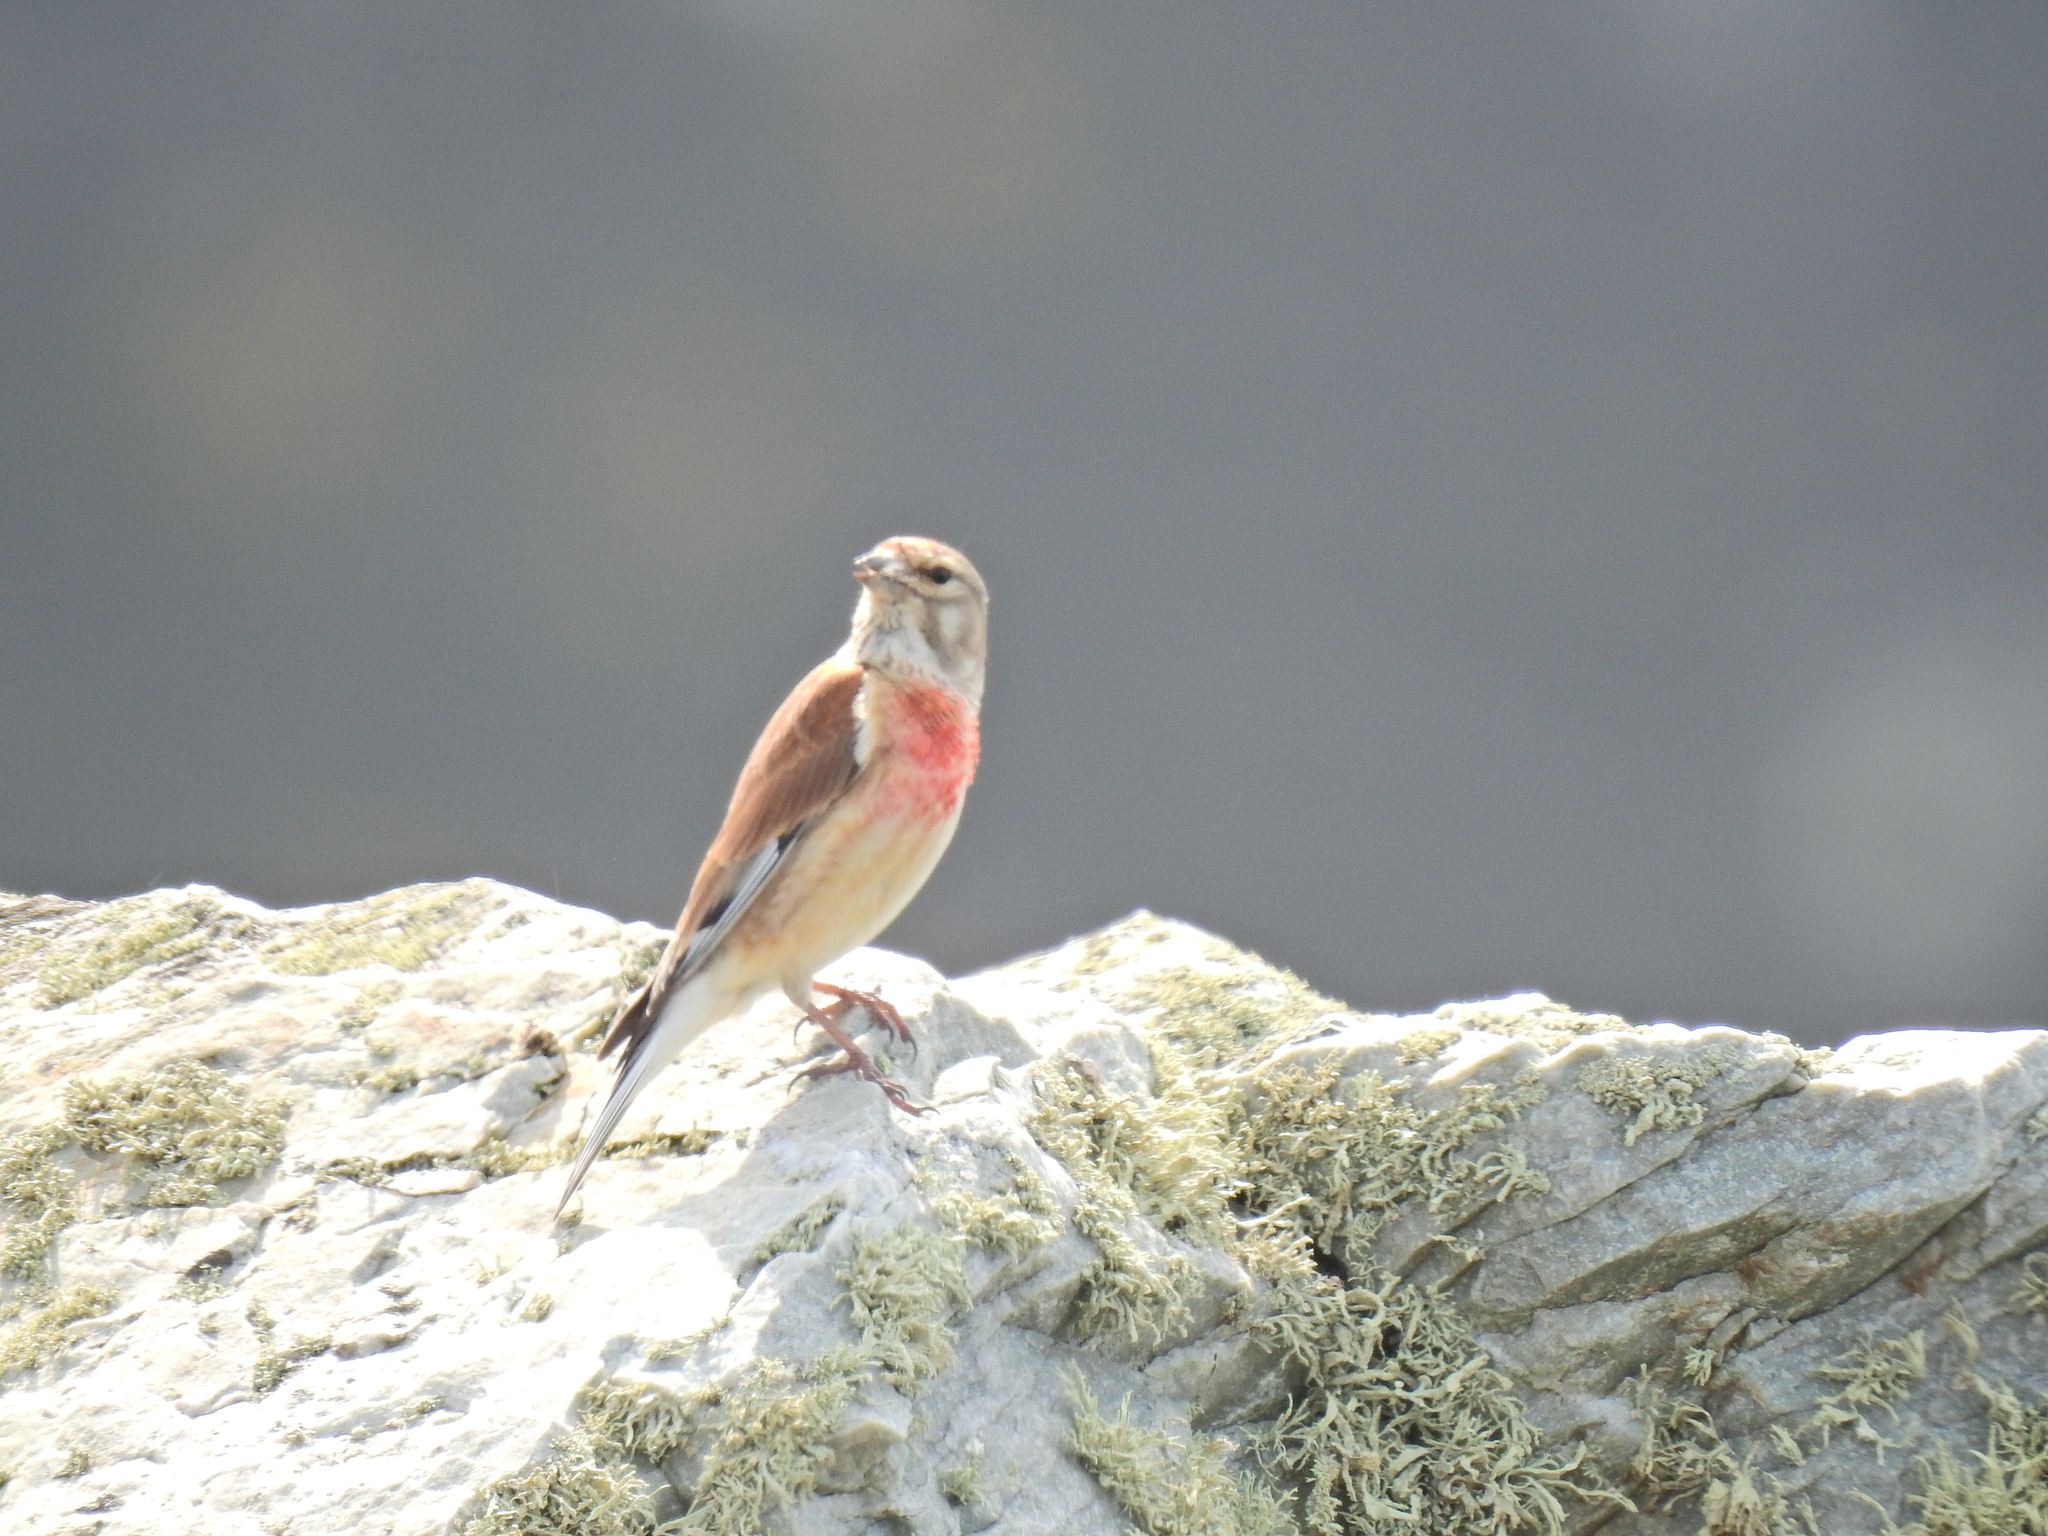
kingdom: Animalia
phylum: Chordata
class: Aves
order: Passeriformes
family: Fringillidae
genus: Linaria
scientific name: Linaria cannabina
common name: Common linnet
